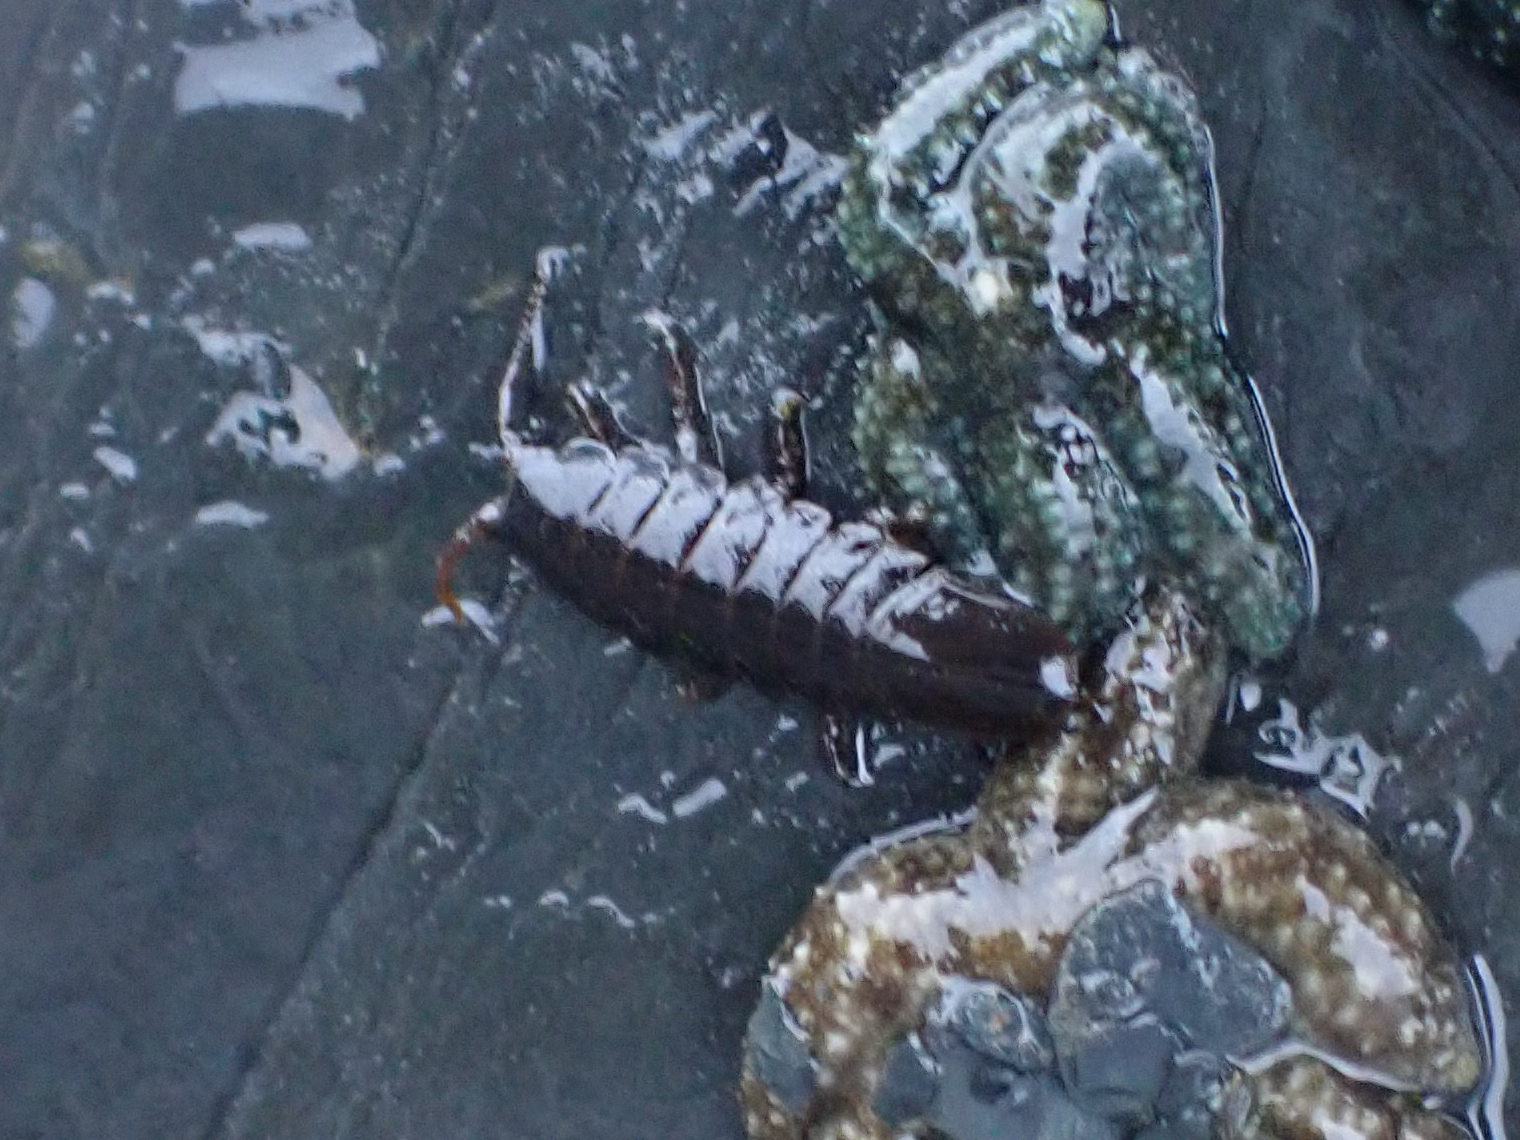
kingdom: Animalia
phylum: Arthropoda
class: Malacostraca
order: Isopoda
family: Idoteidae
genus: Pentidotea
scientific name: Pentidotea wosnesenskii
